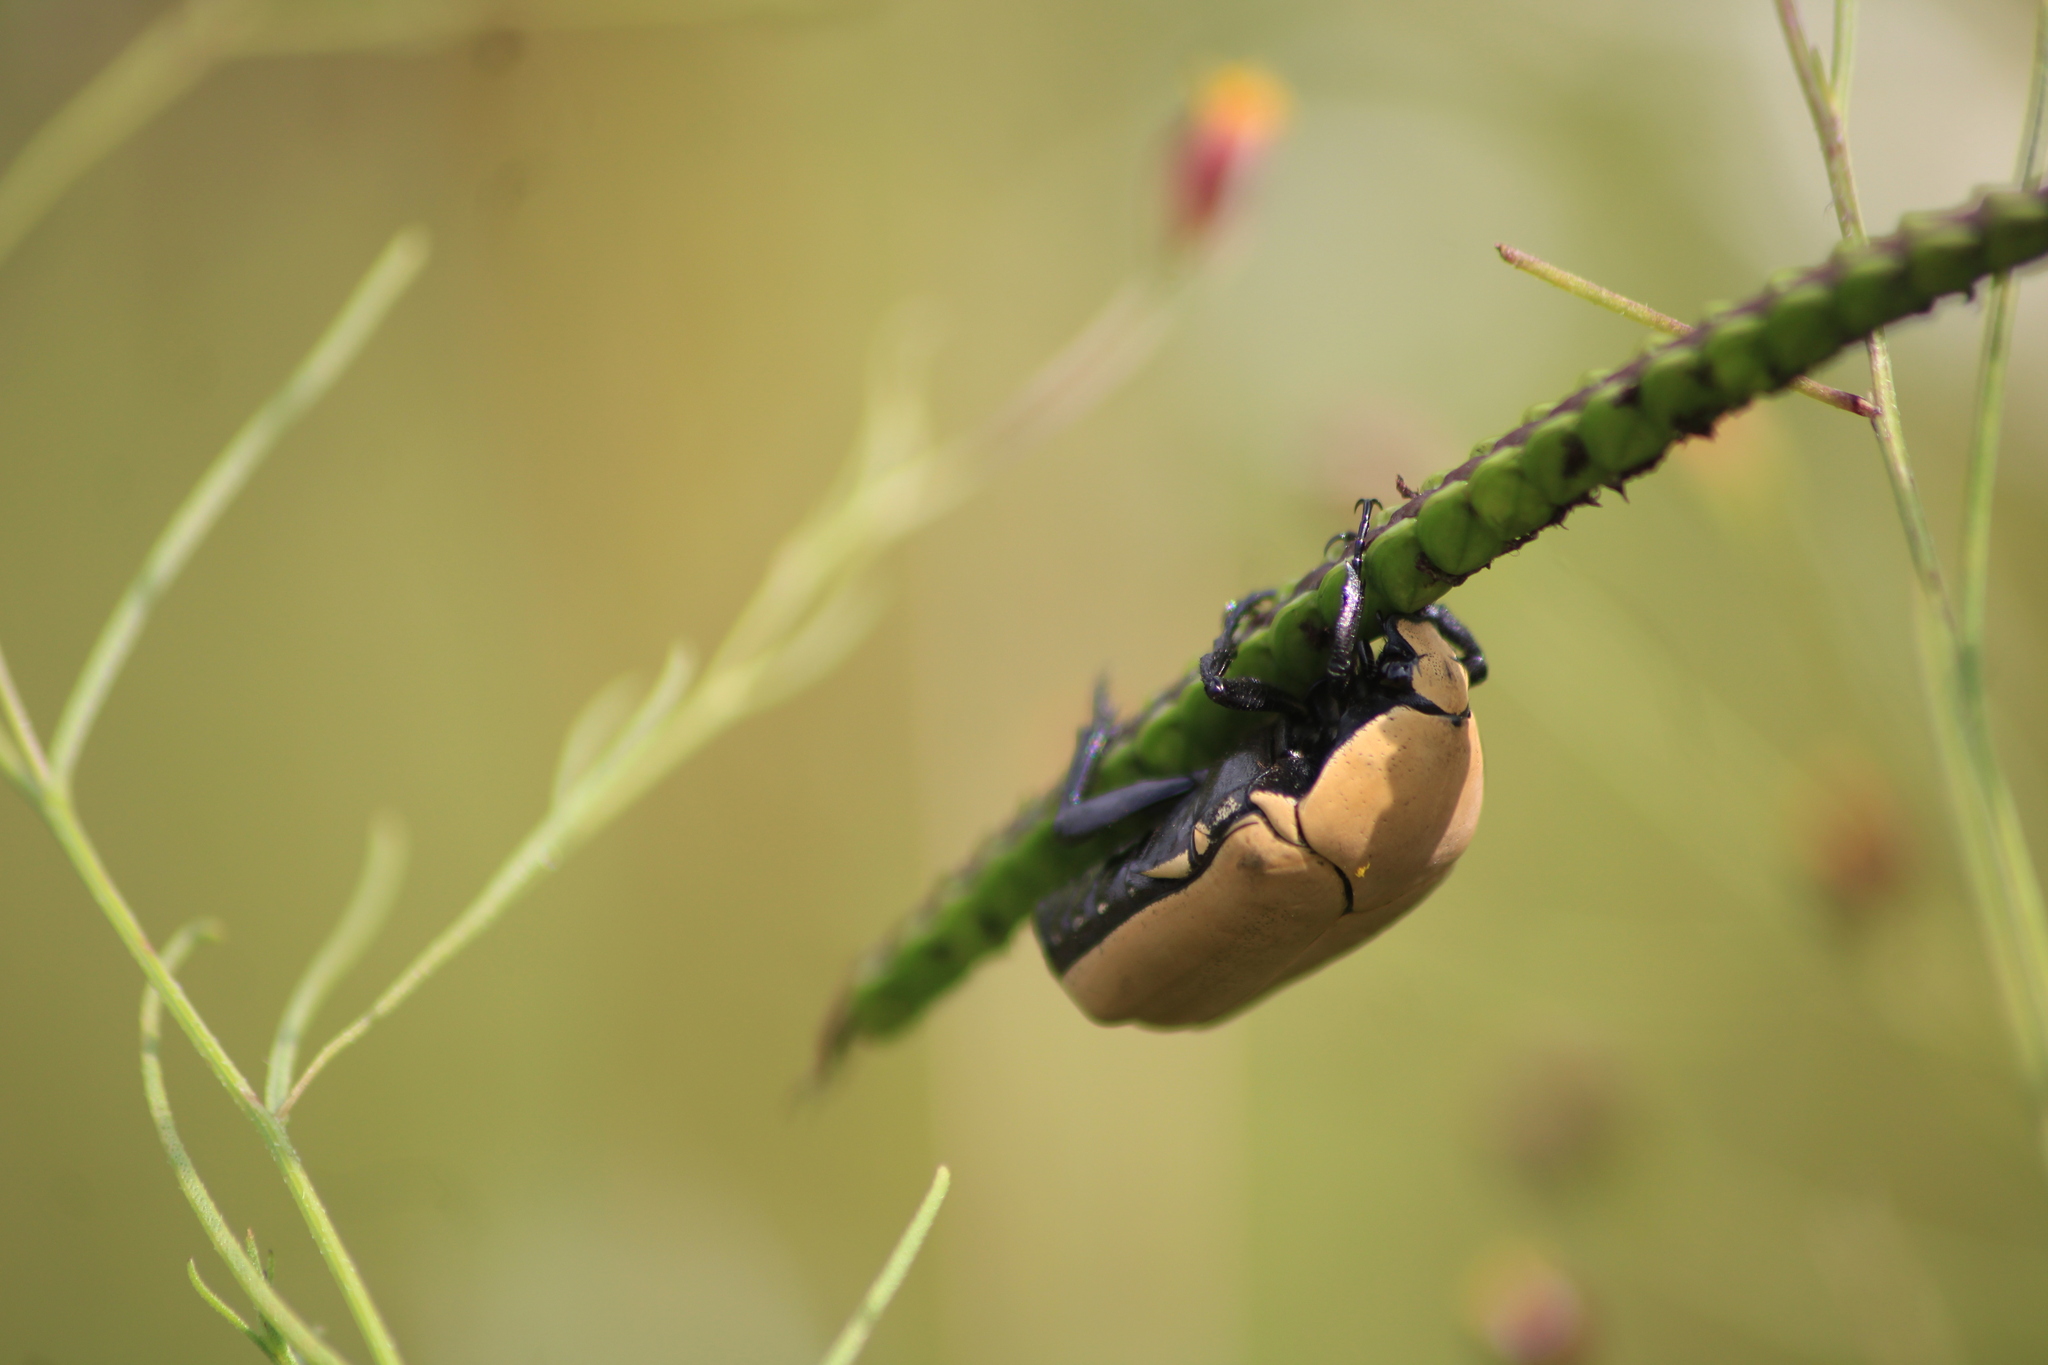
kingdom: Animalia
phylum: Arthropoda
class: Insecta
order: Coleoptera
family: Scarabaeidae
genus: Hologymnetis
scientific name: Hologymnetis cinerea
